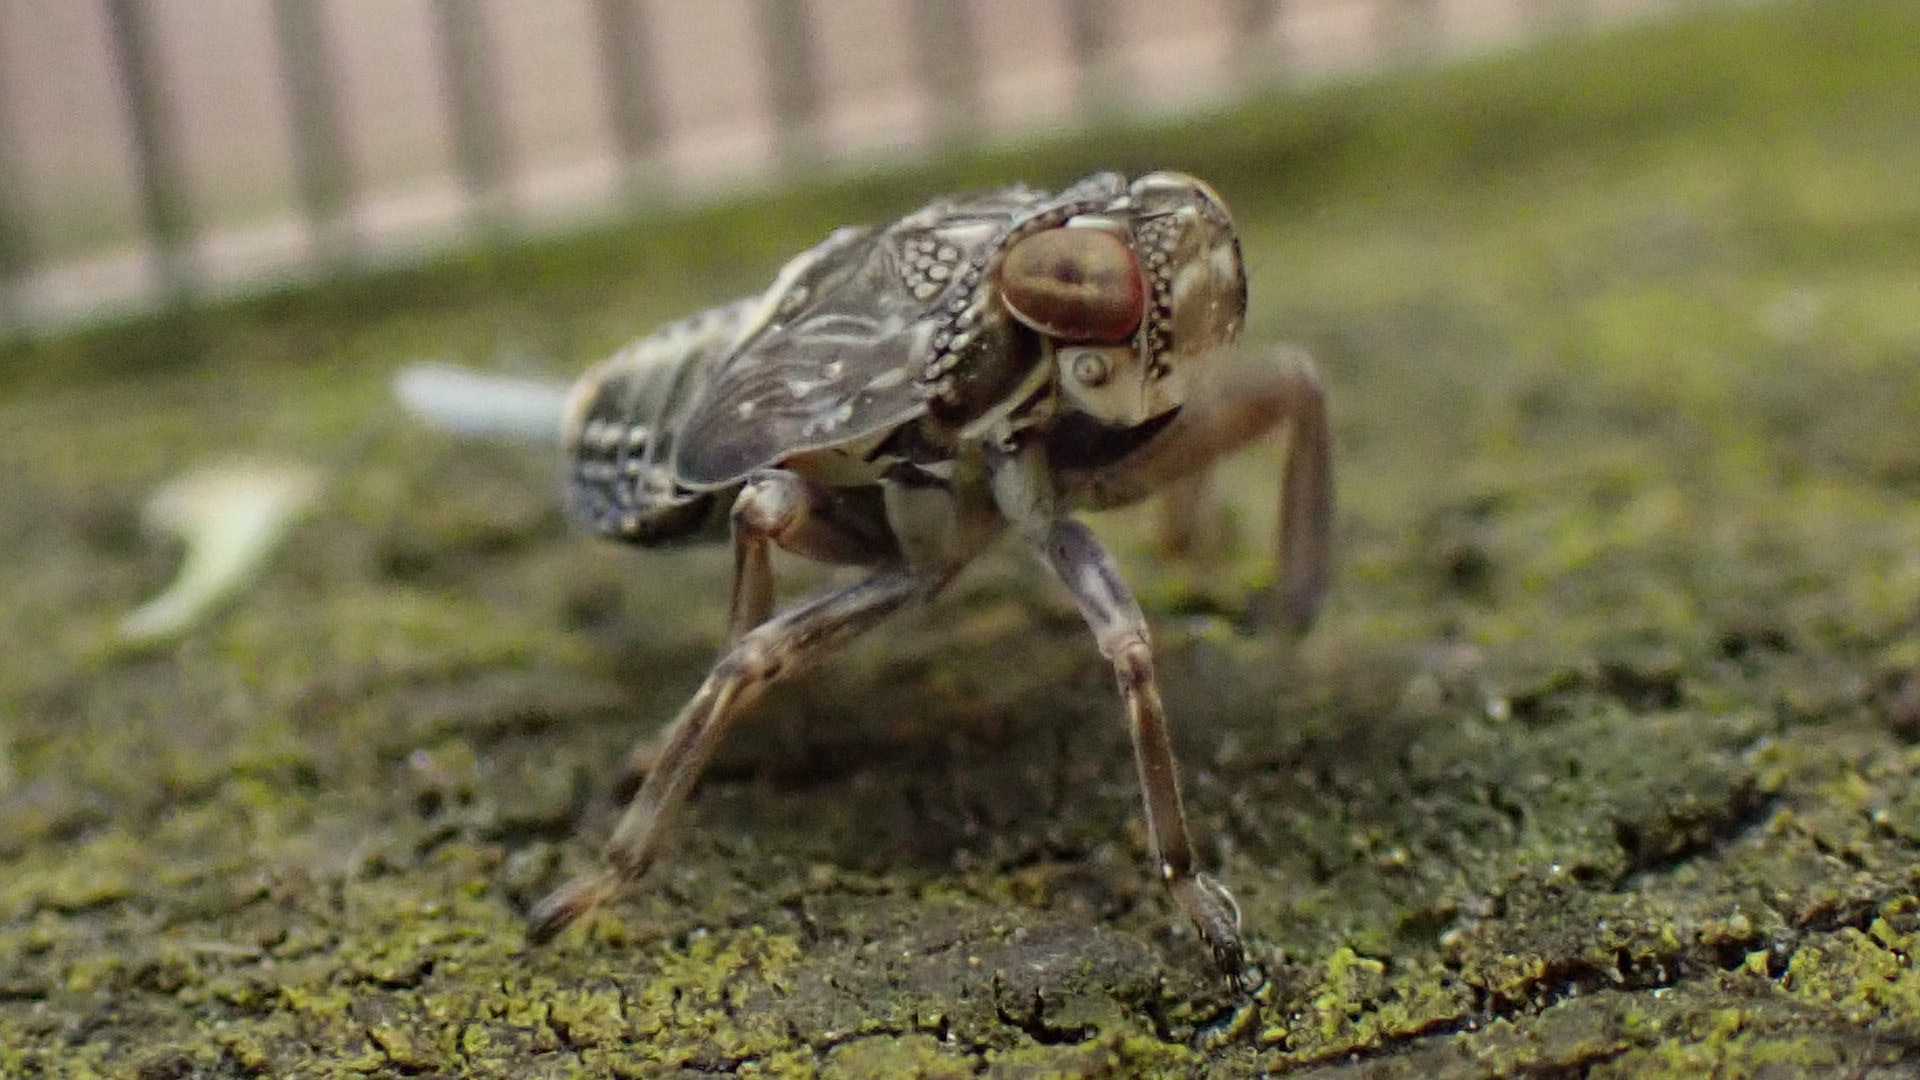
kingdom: Animalia
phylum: Arthropoda
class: Insecta
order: Hemiptera
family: Issidae
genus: Issus
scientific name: Issus coleoptratus
